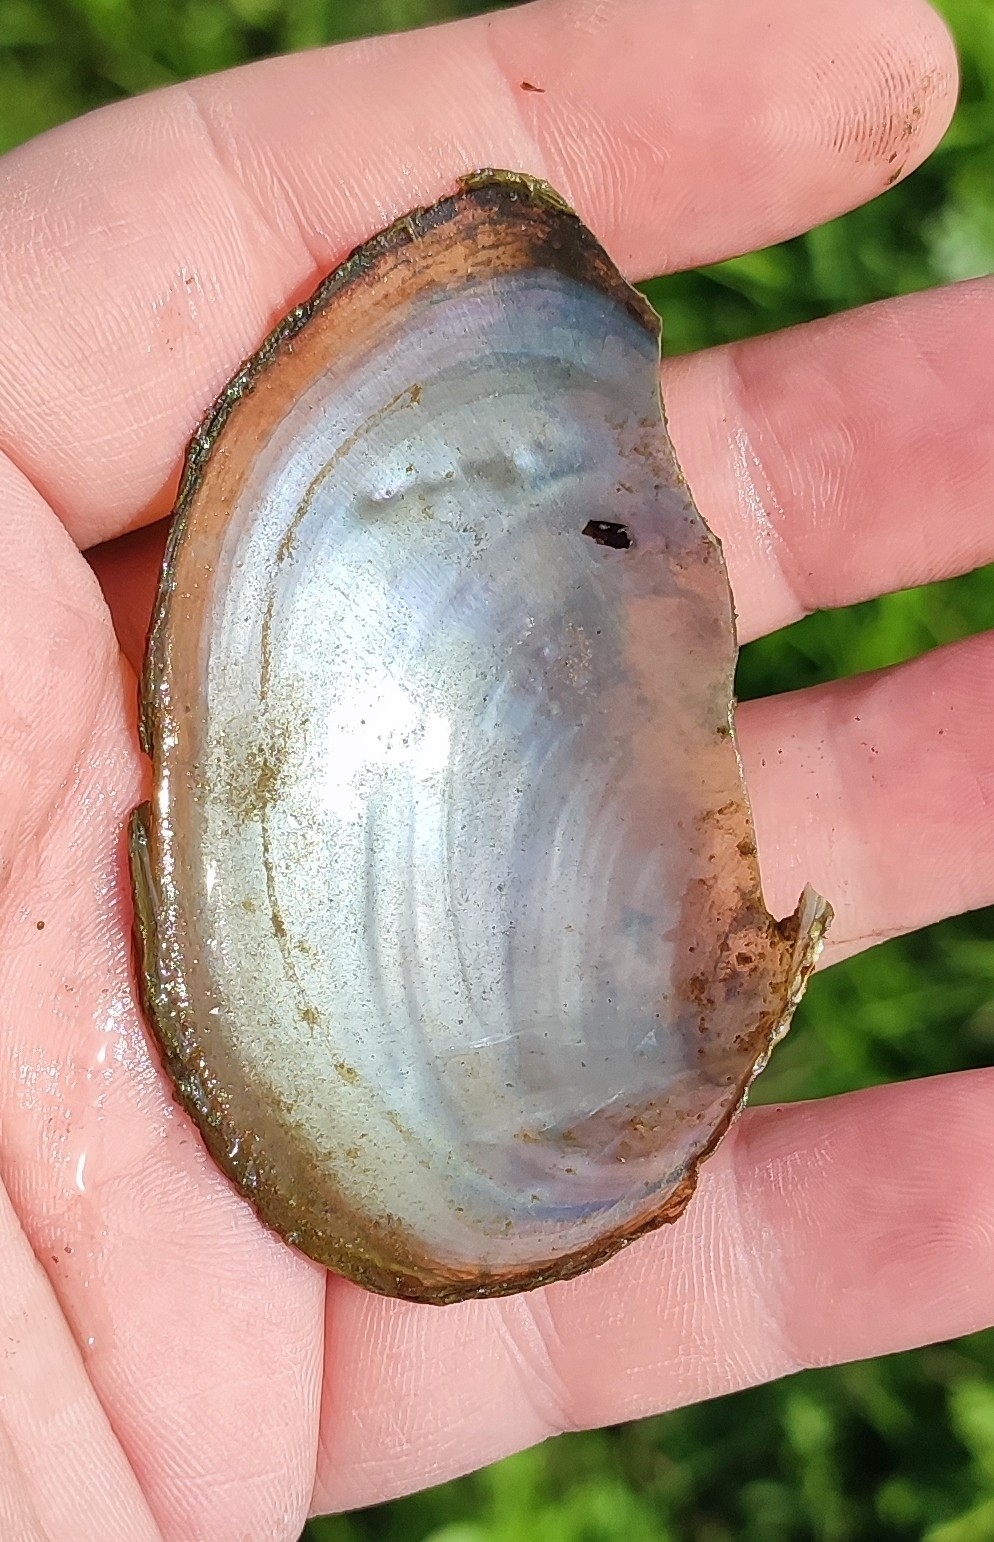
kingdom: Animalia
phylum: Mollusca
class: Bivalvia
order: Unionida
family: Unionidae
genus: Anodonta
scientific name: Anodonta anatina
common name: Duck mussel
